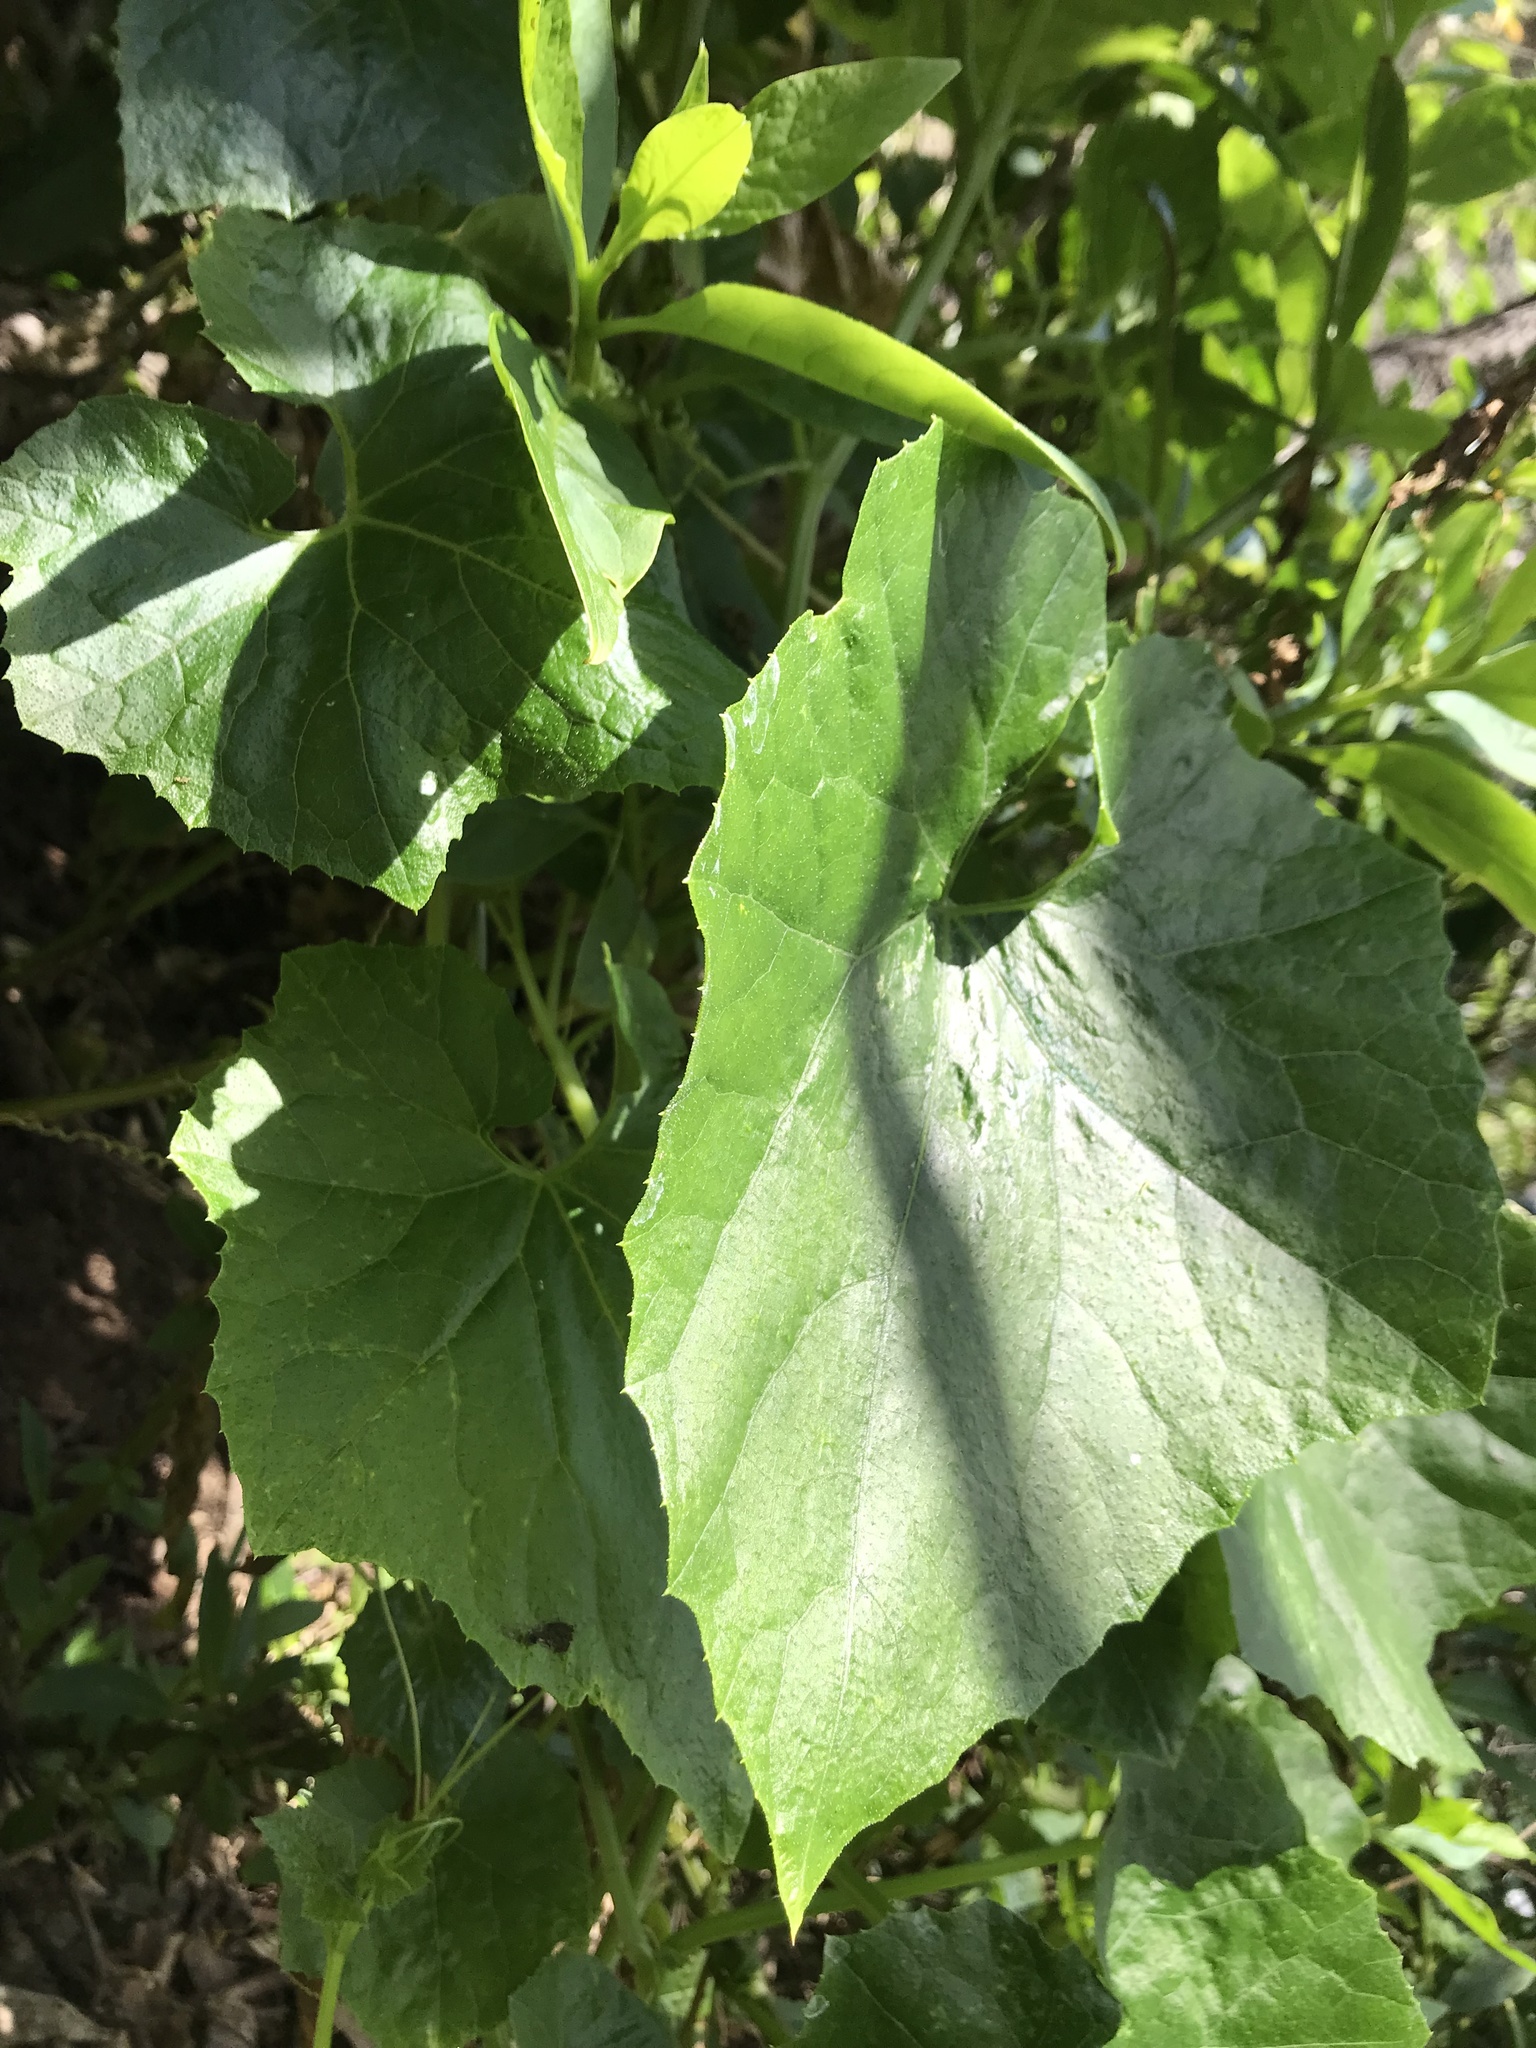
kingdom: Plantae
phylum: Tracheophyta
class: Magnoliopsida
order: Cucurbitales
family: Cucurbitaceae
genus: Sicyos
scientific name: Sicyos australis
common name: Angle-cucumber
